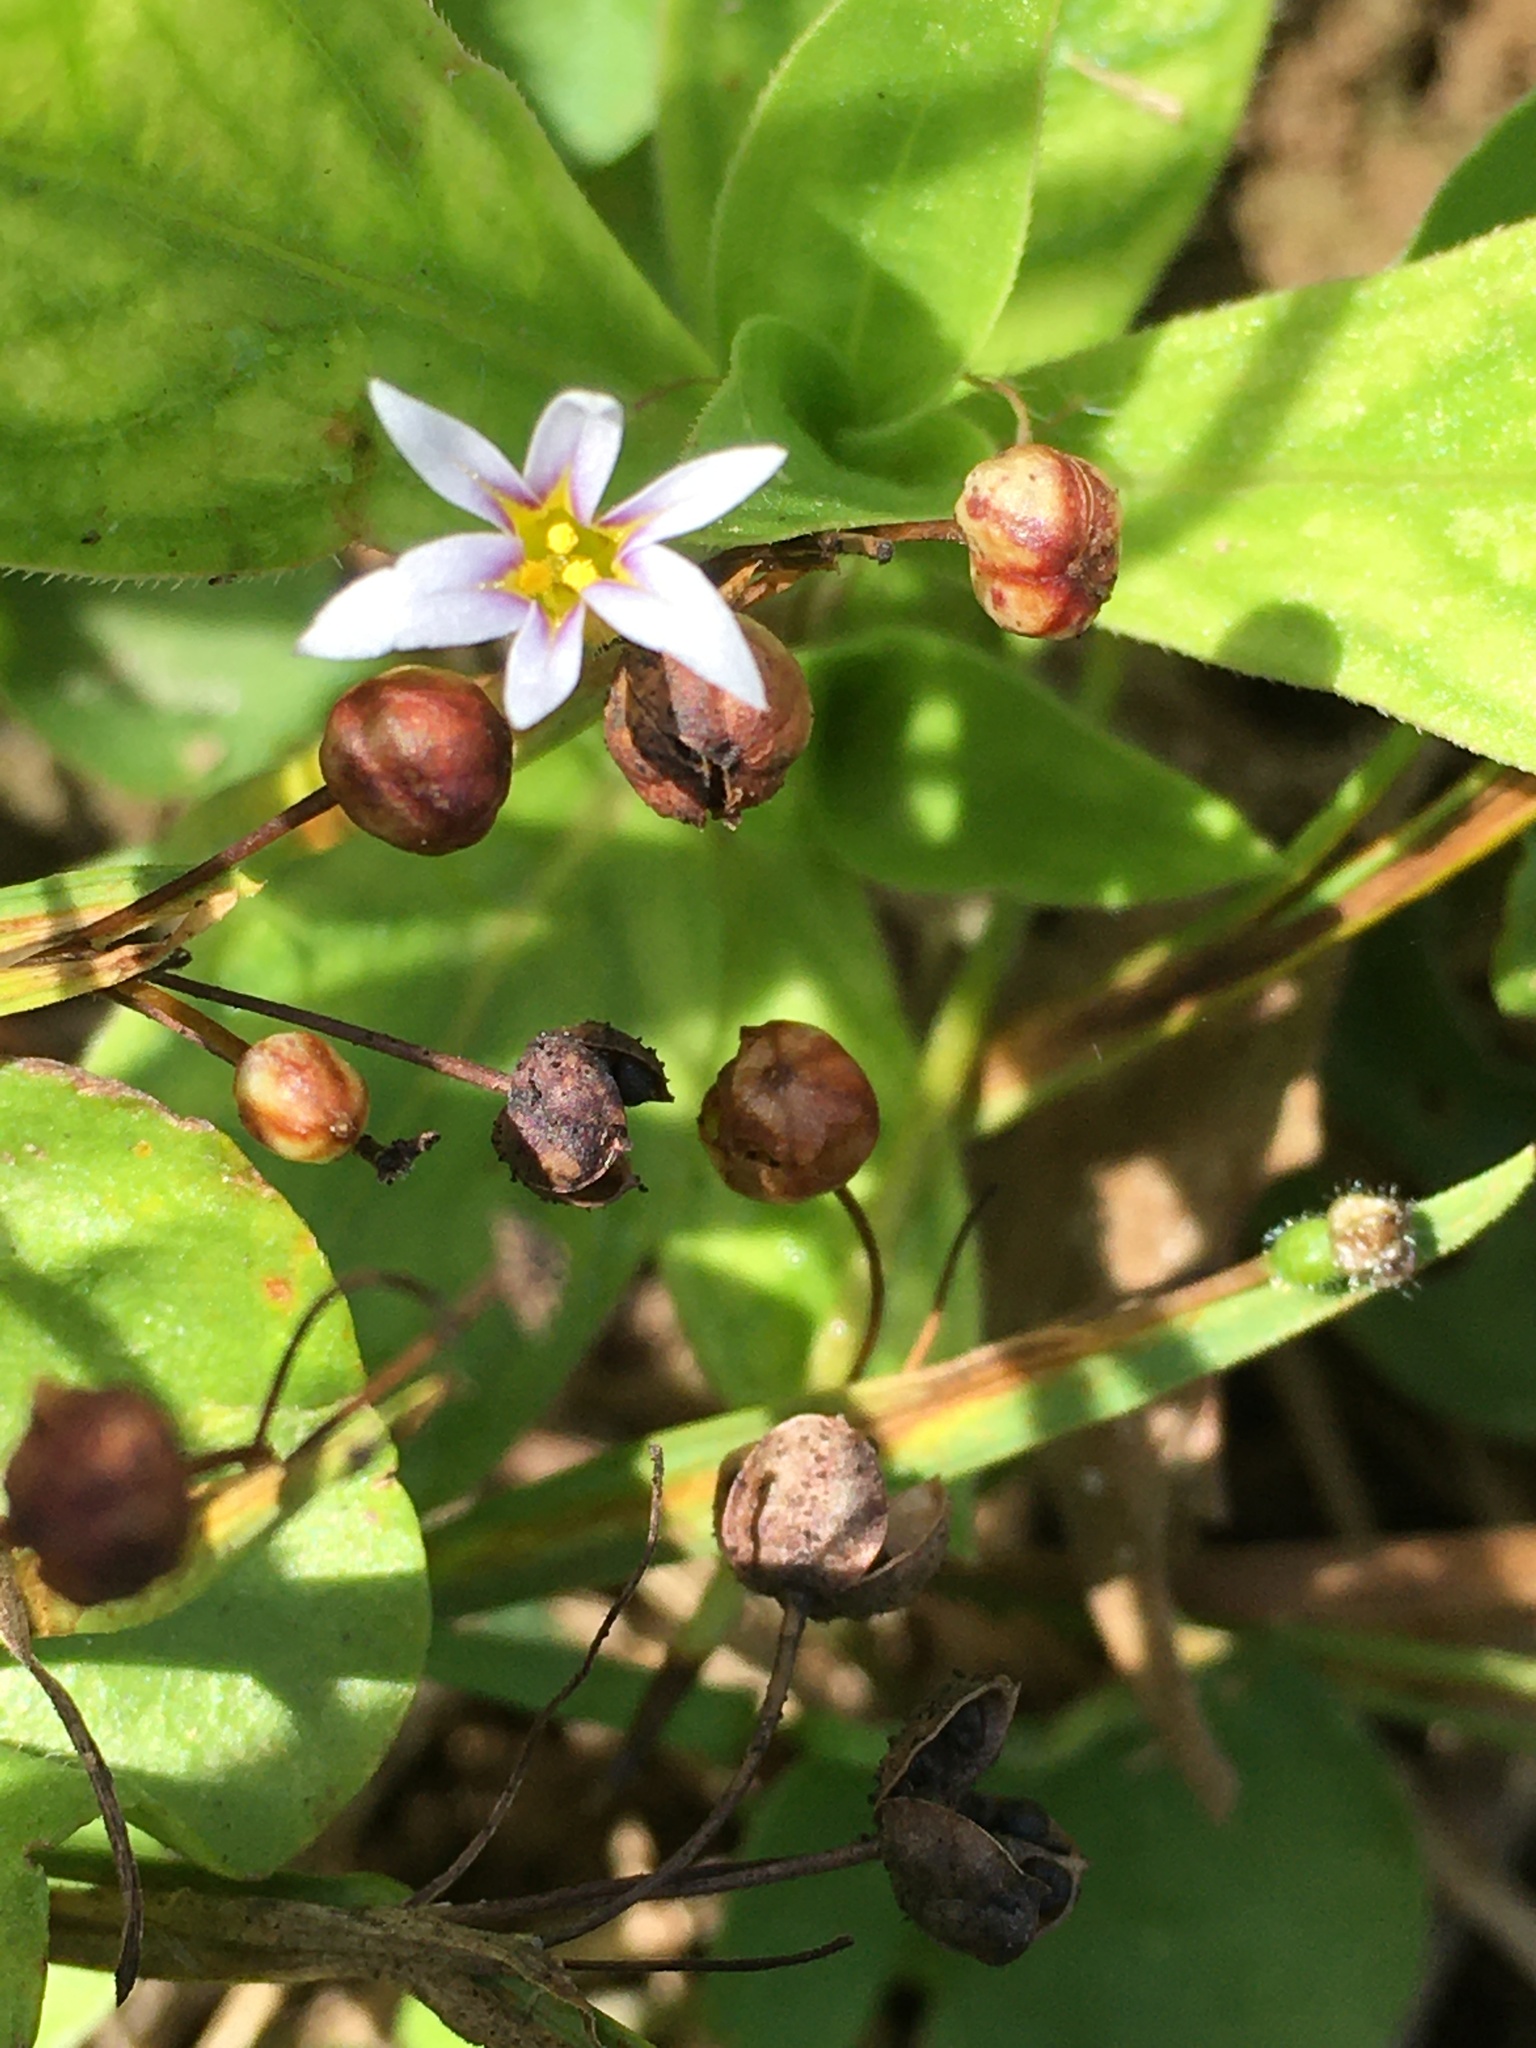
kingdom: Plantae
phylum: Tracheophyta
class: Liliopsida
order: Asparagales
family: Iridaceae
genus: Sisyrinchium
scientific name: Sisyrinchium micranthum
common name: Bermuda pigroot
